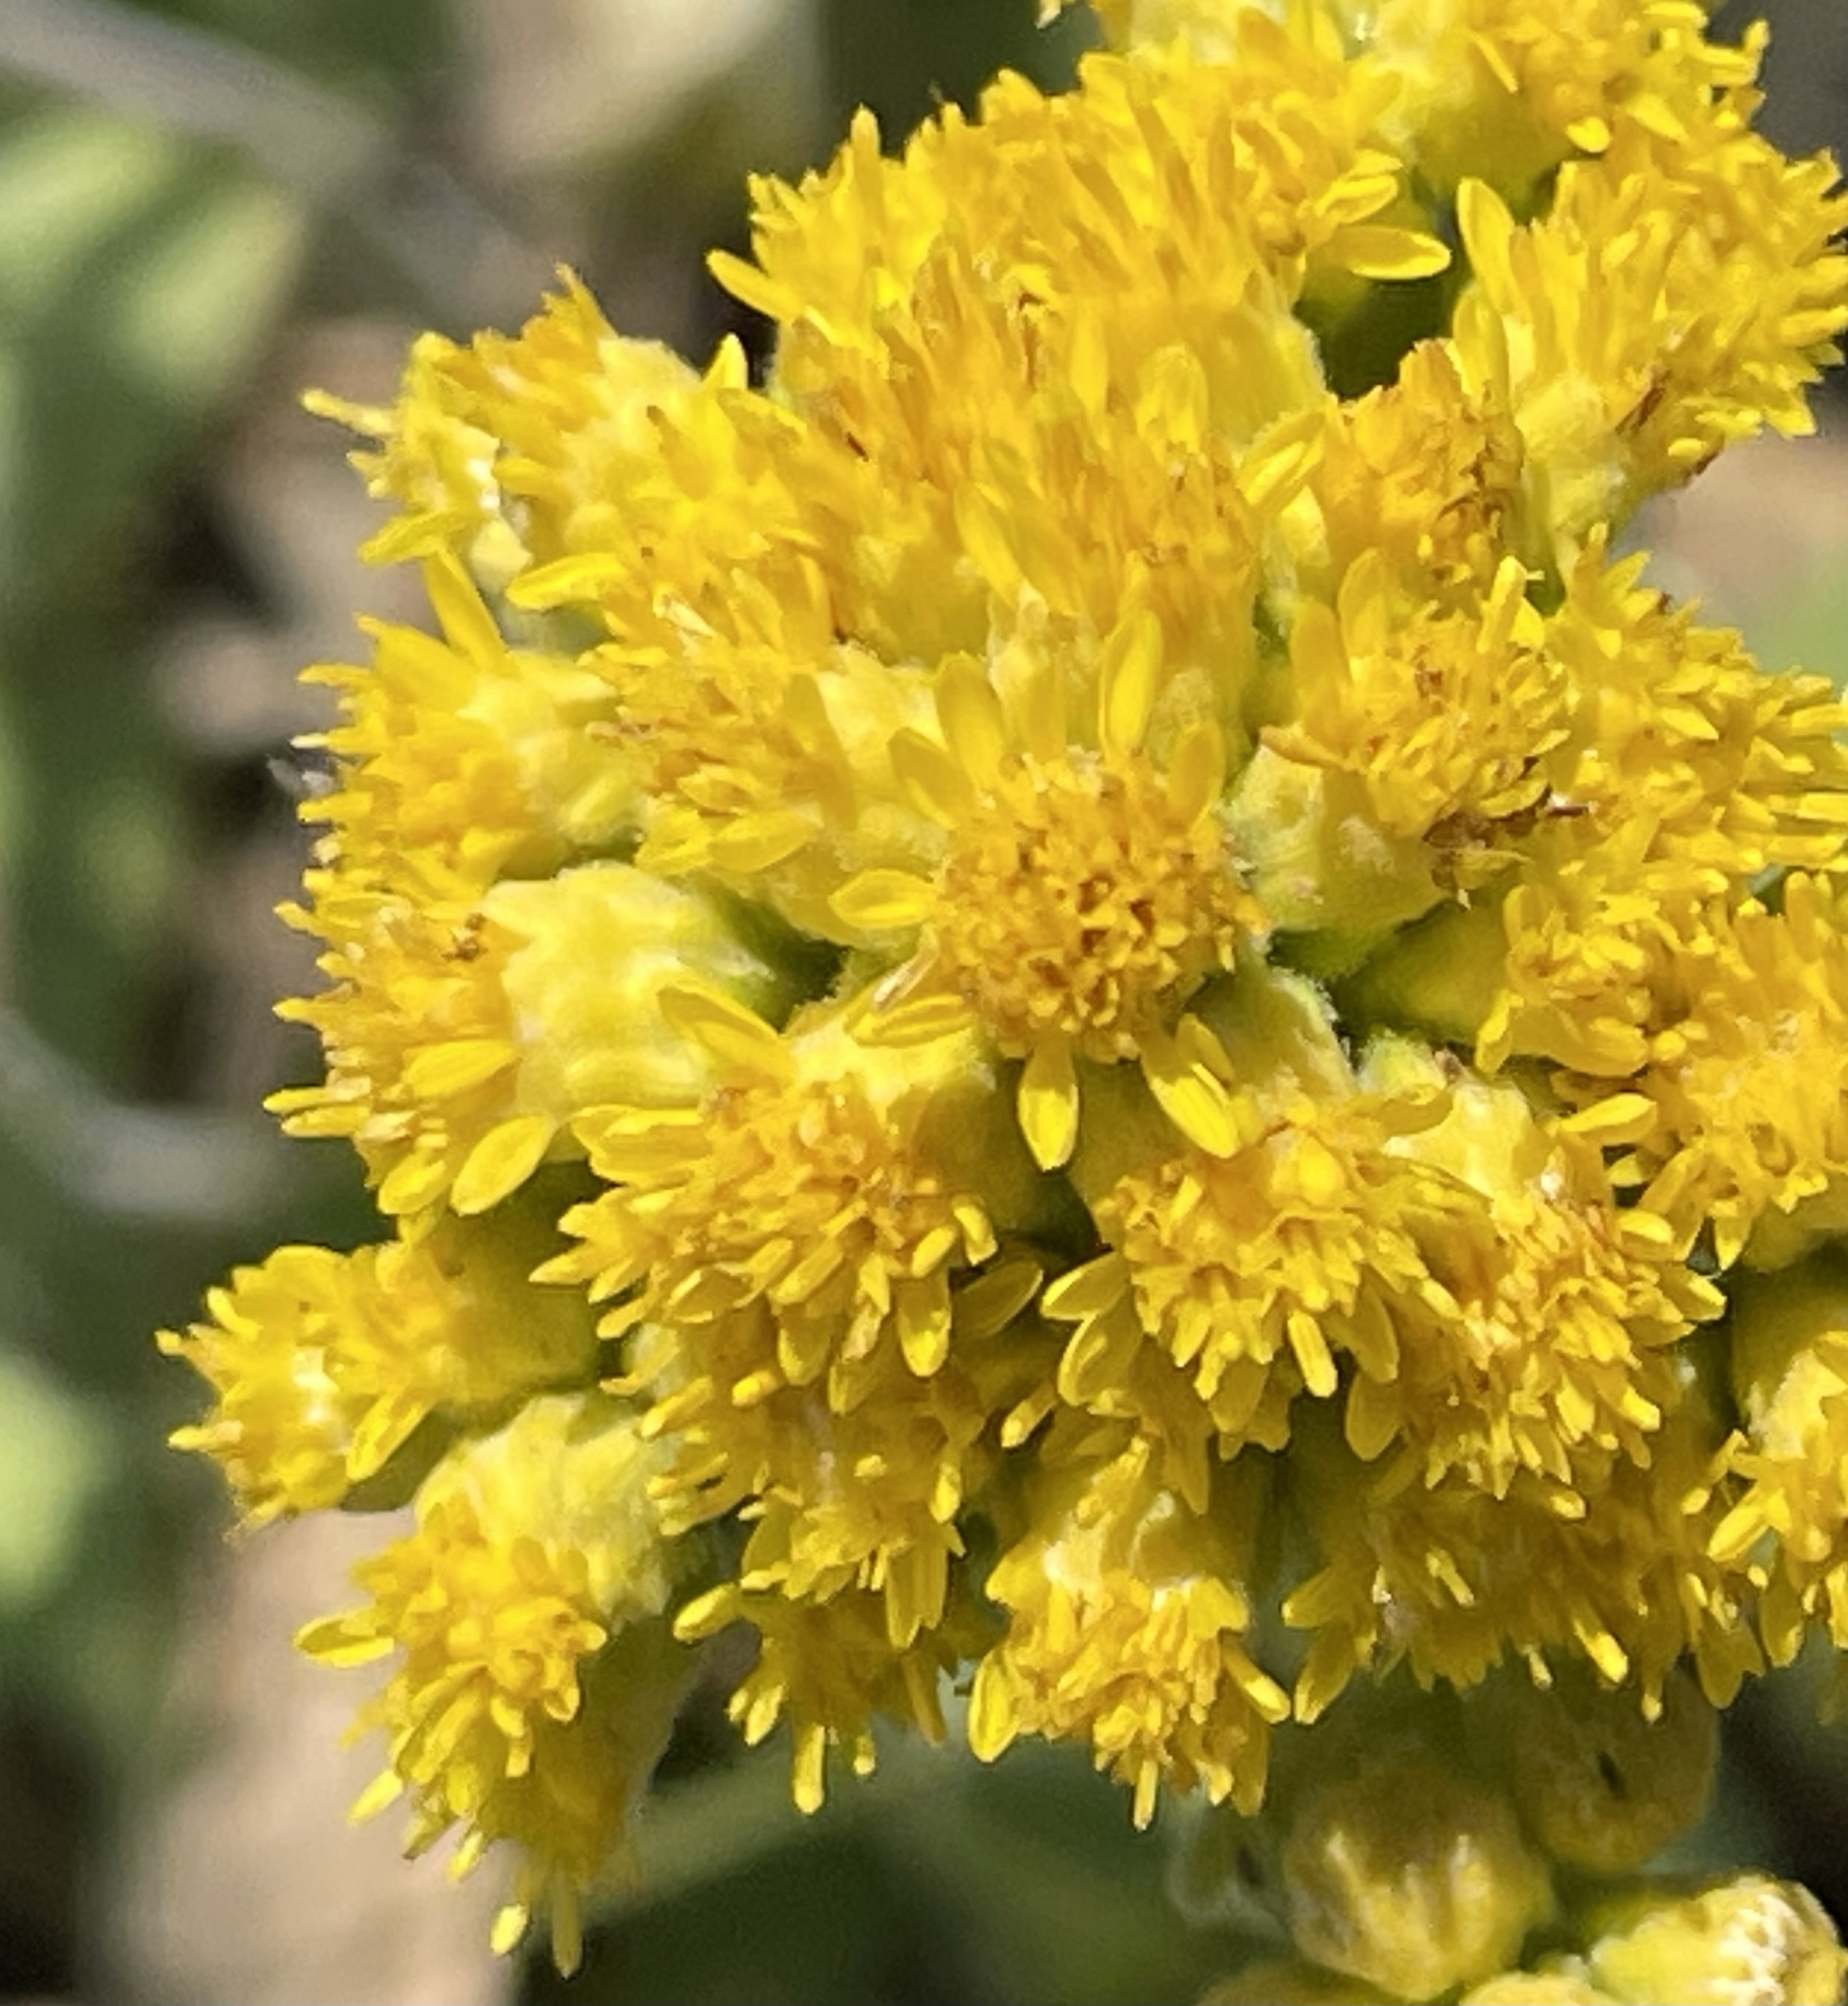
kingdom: Plantae
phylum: Tracheophyta
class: Magnoliopsida
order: Asterales
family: Asteraceae
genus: Solidago
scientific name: Solidago rigida
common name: Rigid goldenrod
